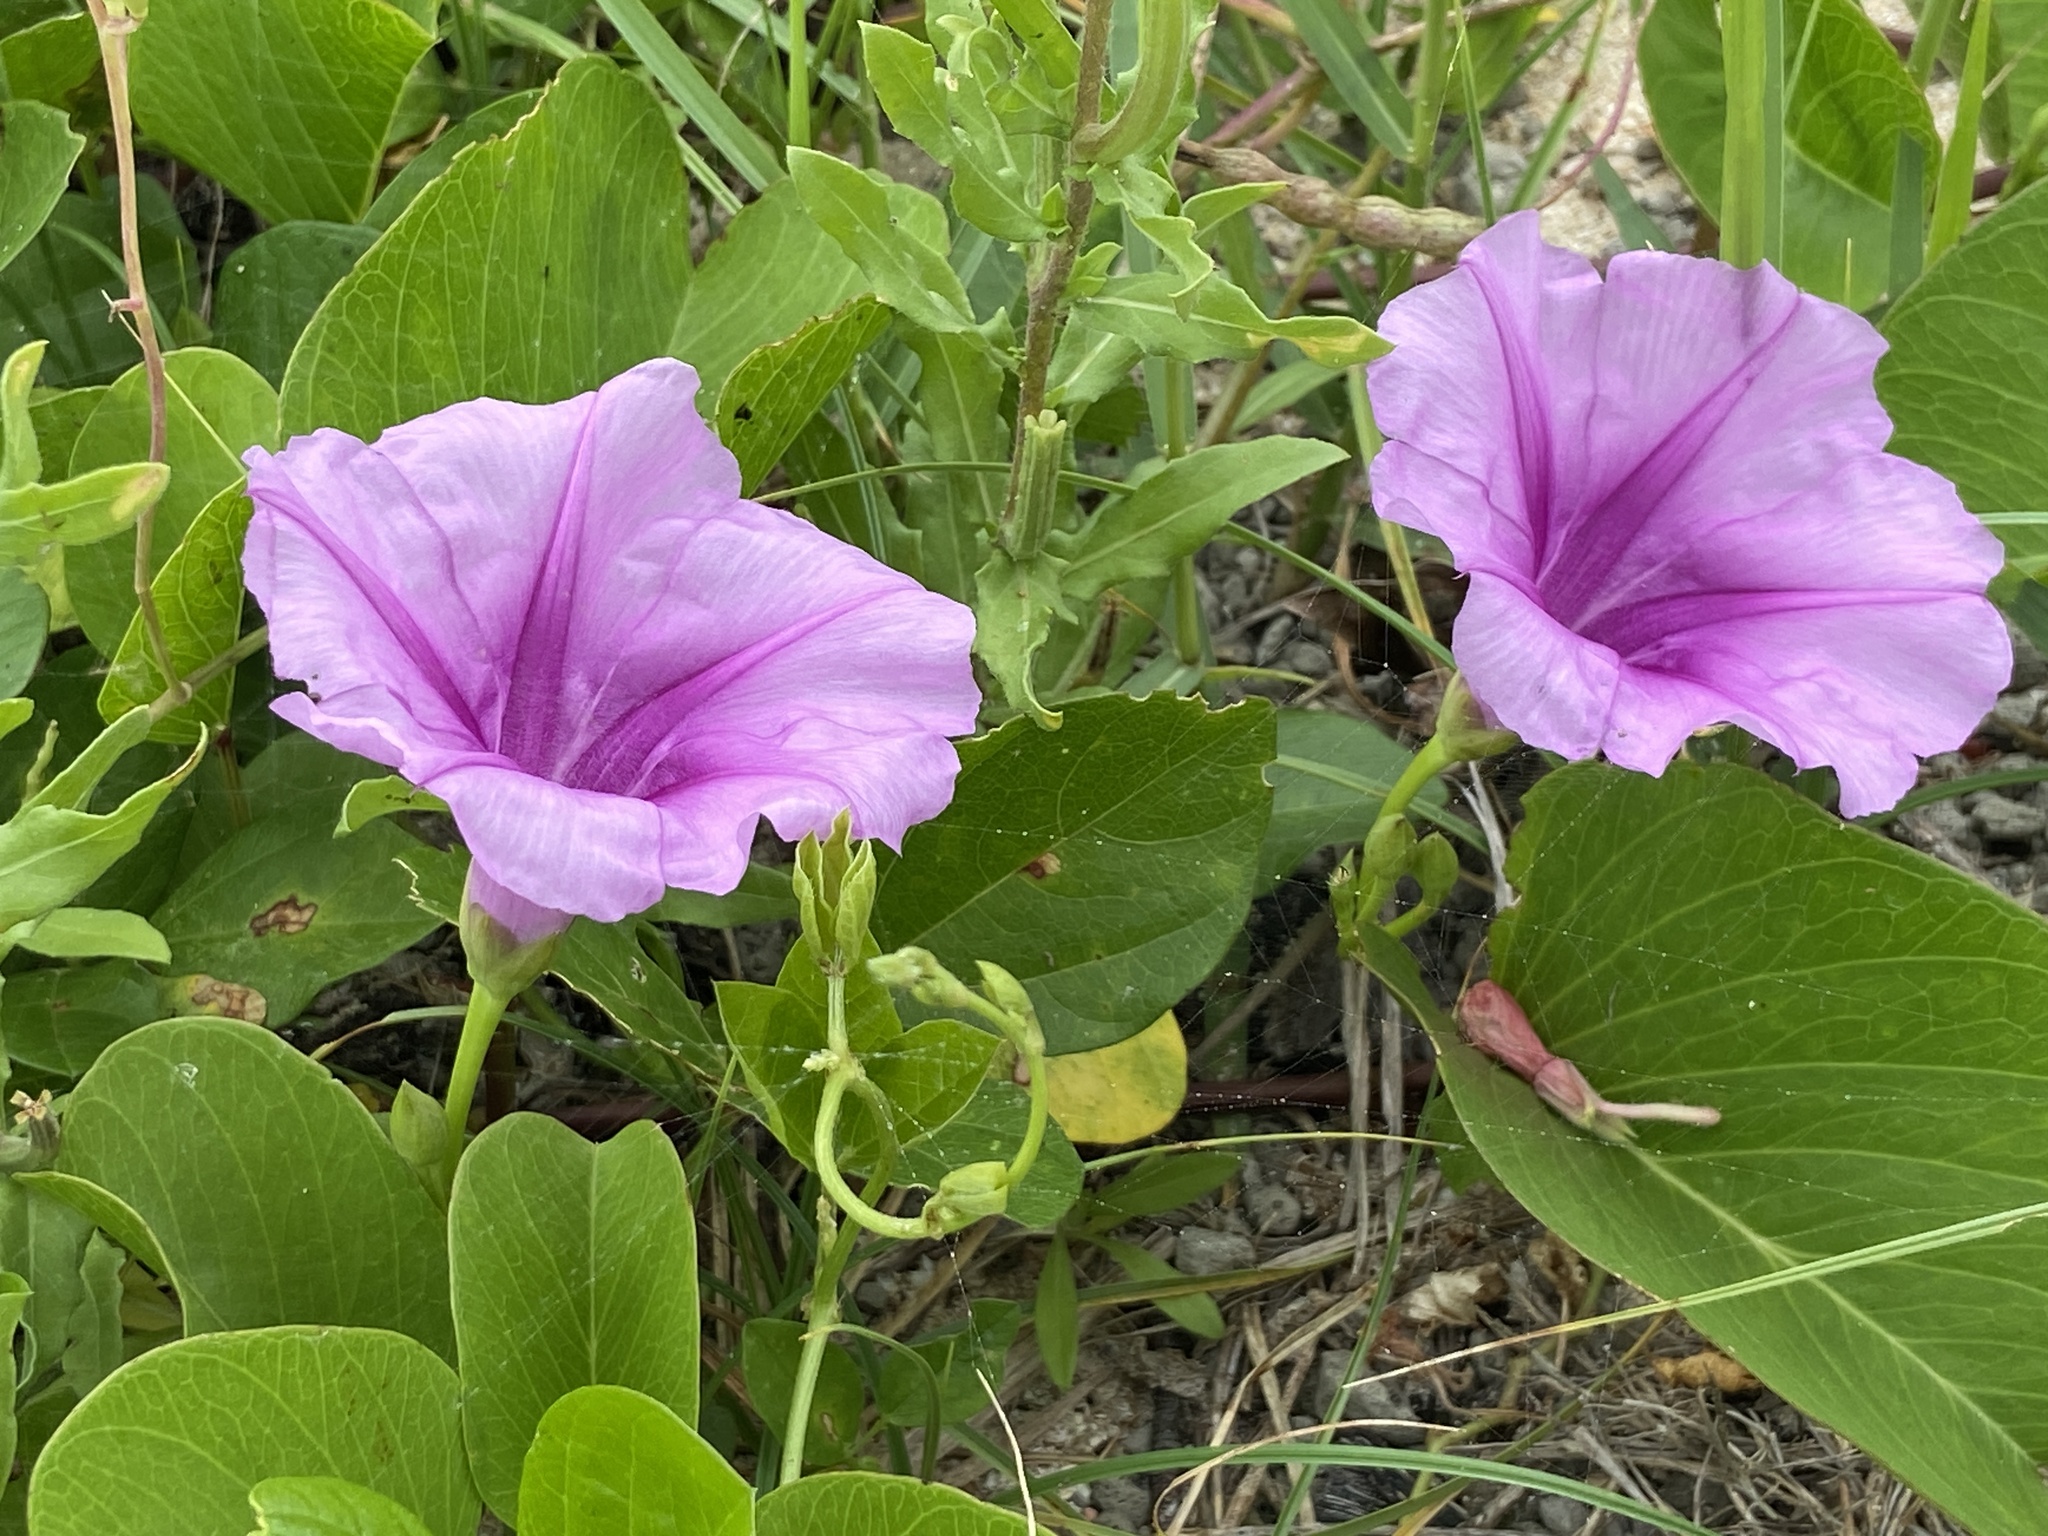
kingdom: Plantae
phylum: Tracheophyta
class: Magnoliopsida
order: Solanales
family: Convolvulaceae
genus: Ipomoea
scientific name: Ipomoea pes-caprae
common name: Beach morning glory
